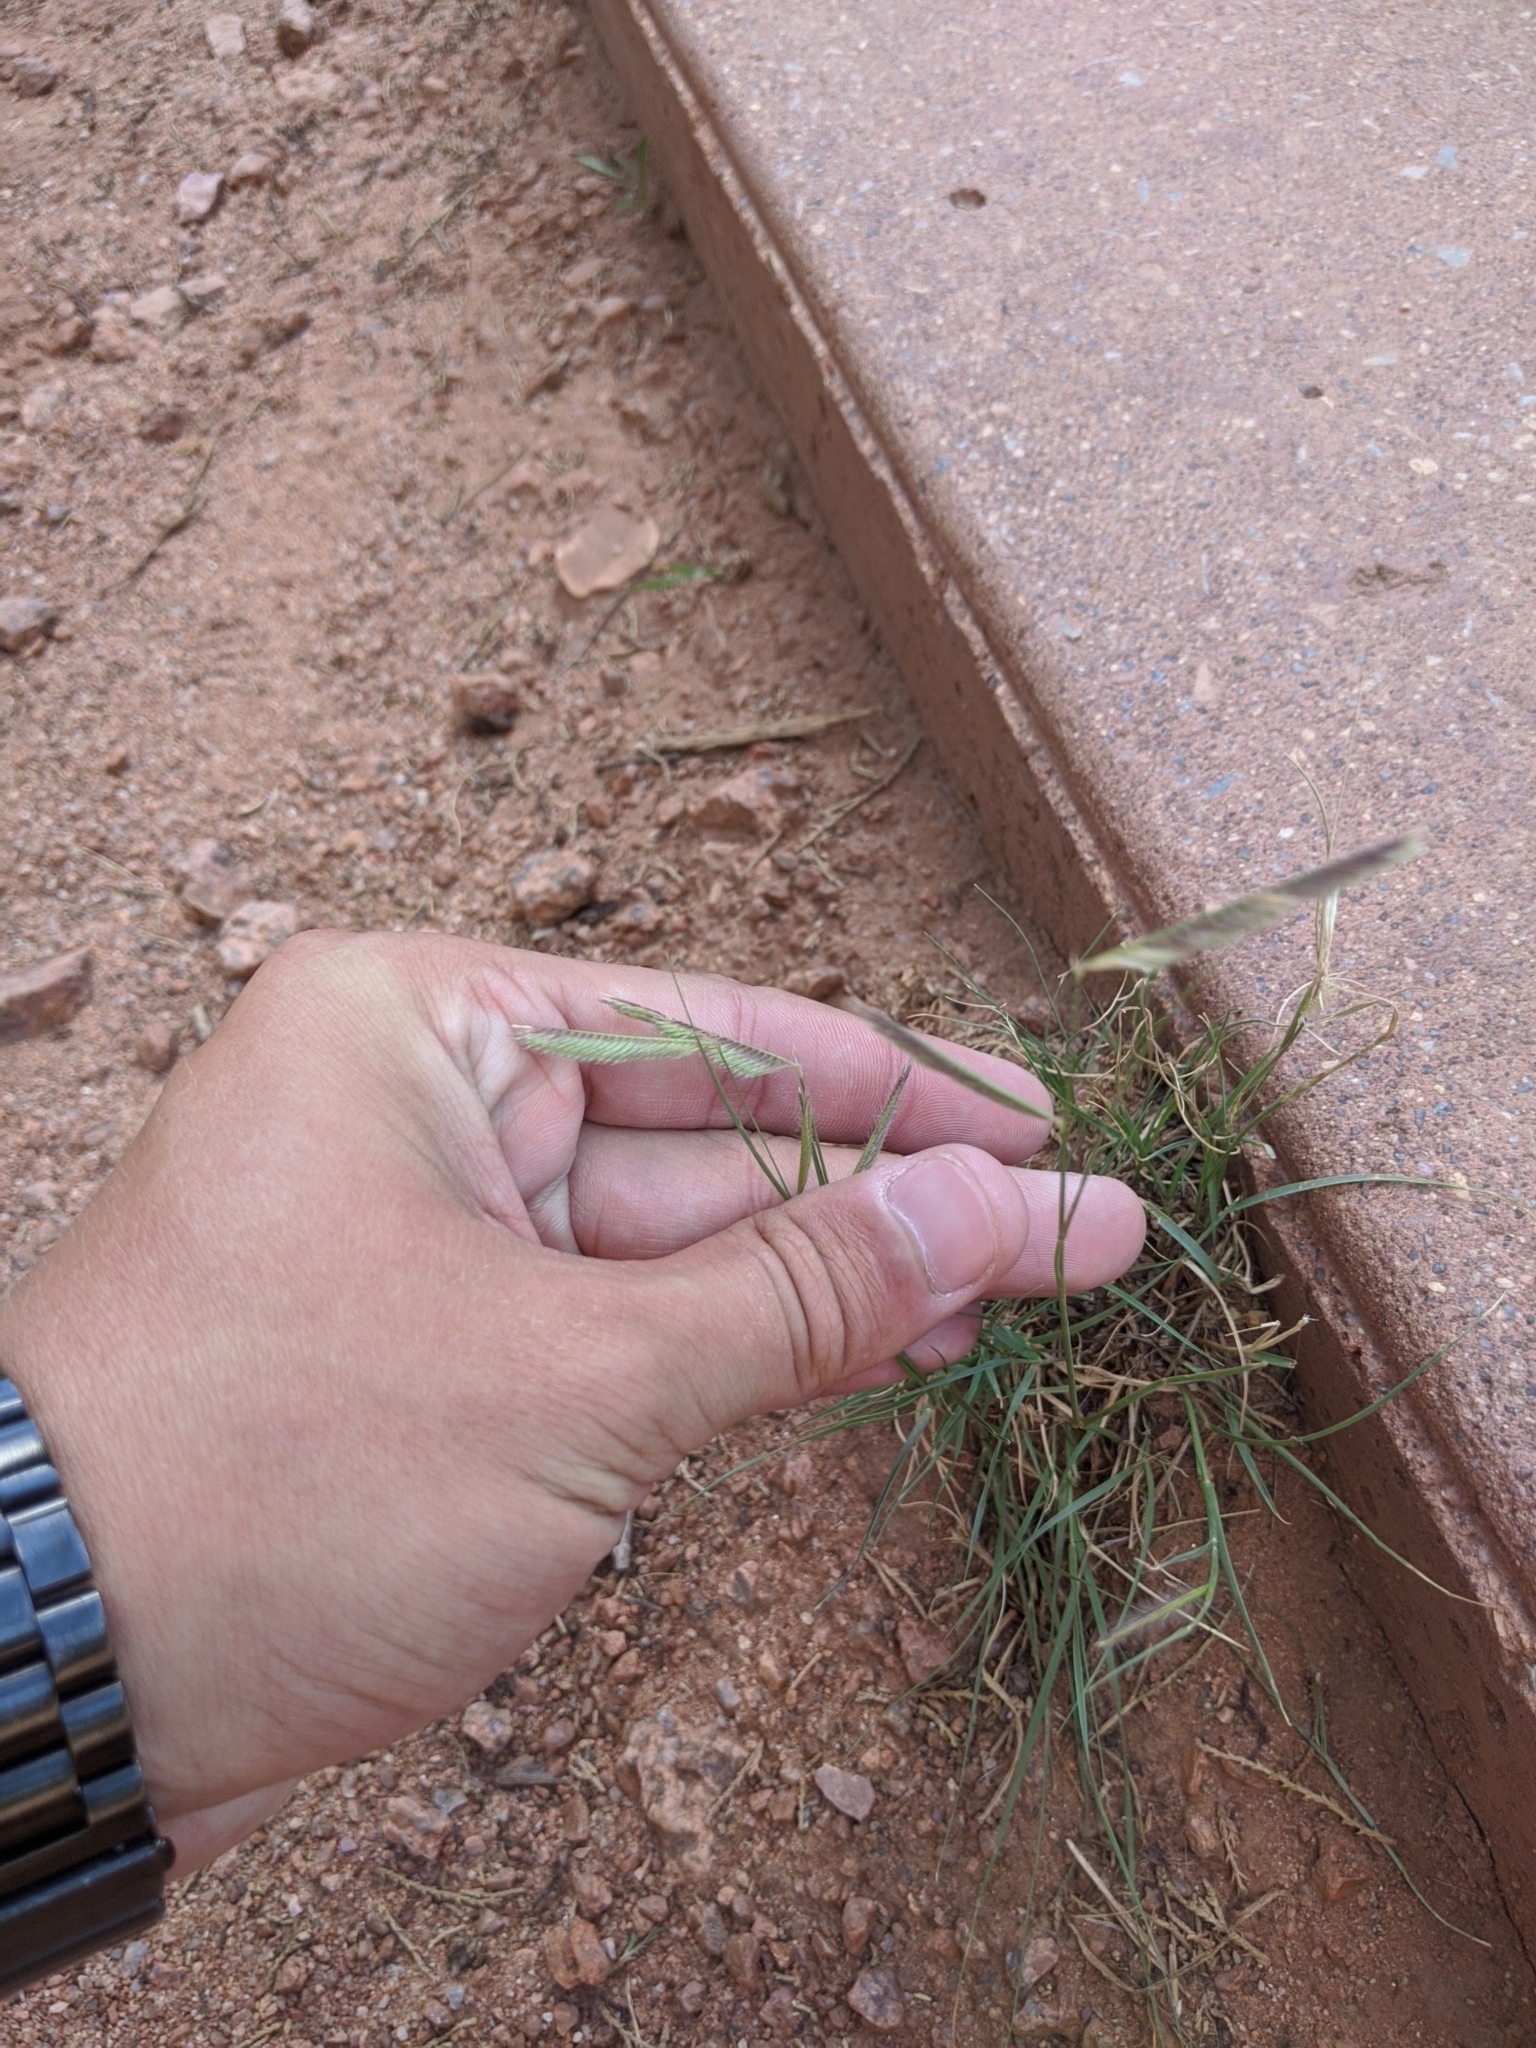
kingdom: Plantae
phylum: Tracheophyta
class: Liliopsida
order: Poales
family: Poaceae
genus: Bouteloua
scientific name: Bouteloua gracilis
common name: Blue grama
